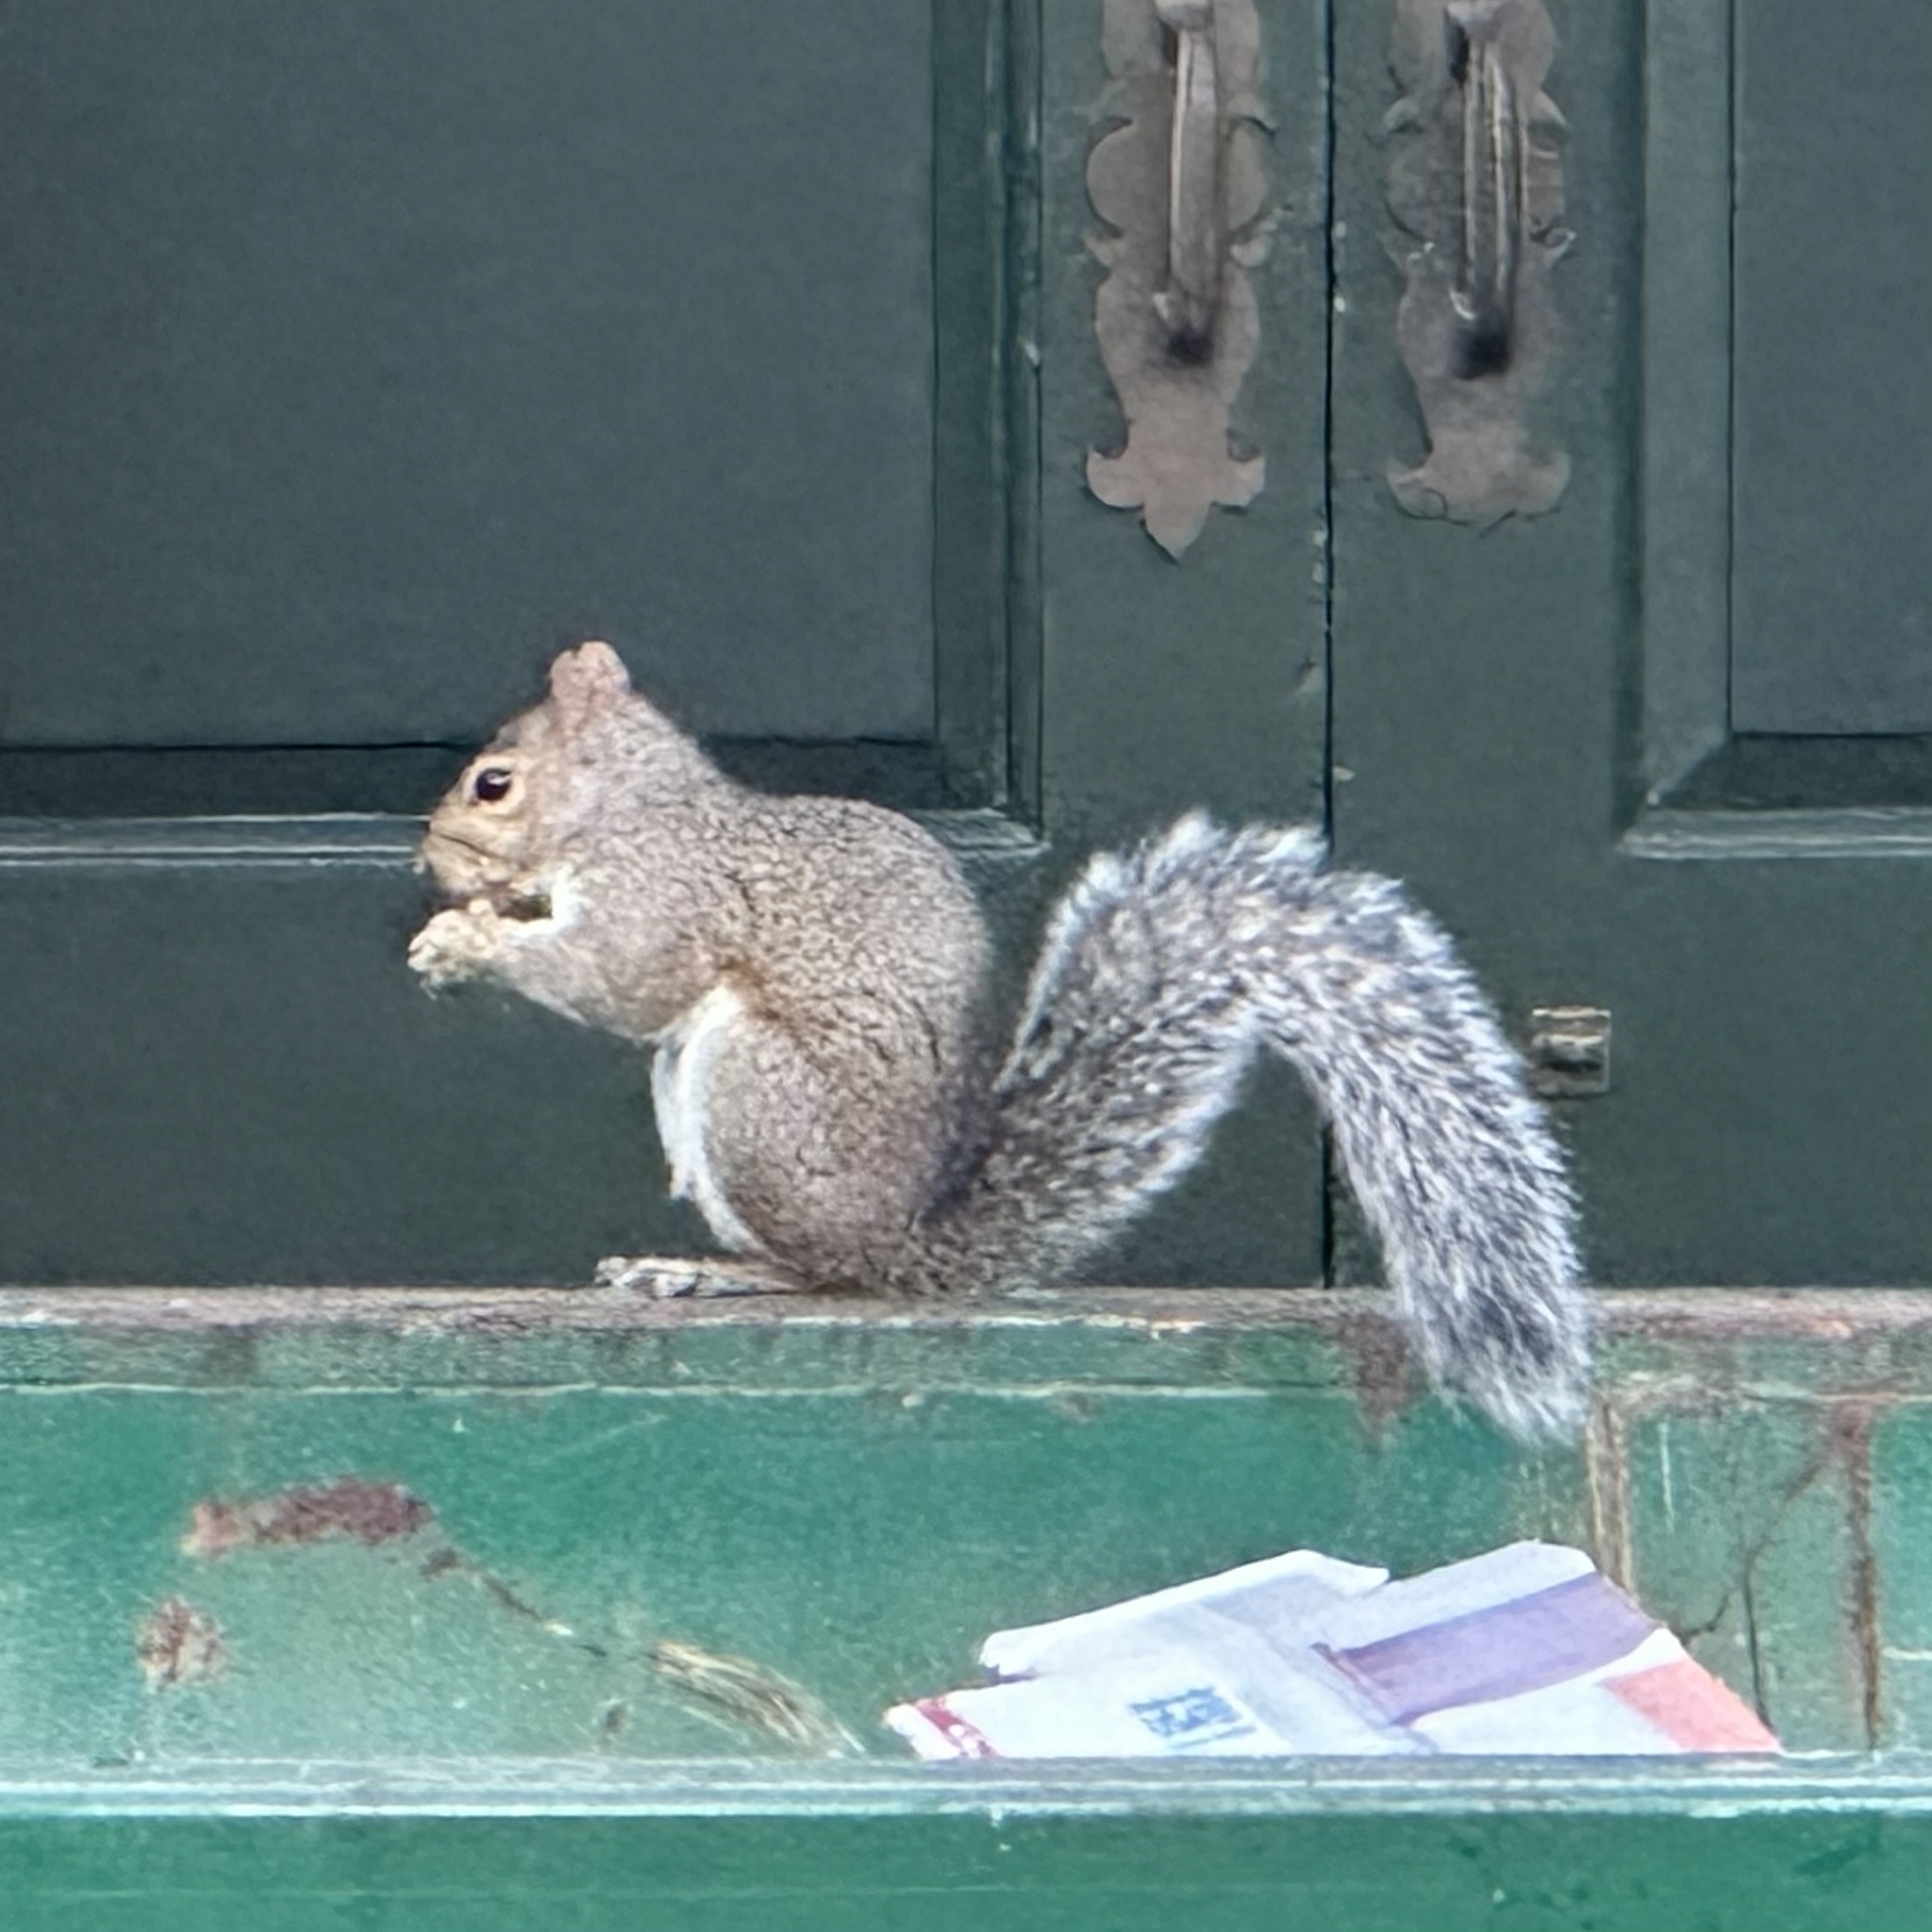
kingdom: Animalia
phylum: Chordata
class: Mammalia
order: Rodentia
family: Sciuridae
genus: Sciurus
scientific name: Sciurus carolinensis
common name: Eastern gray squirrel
